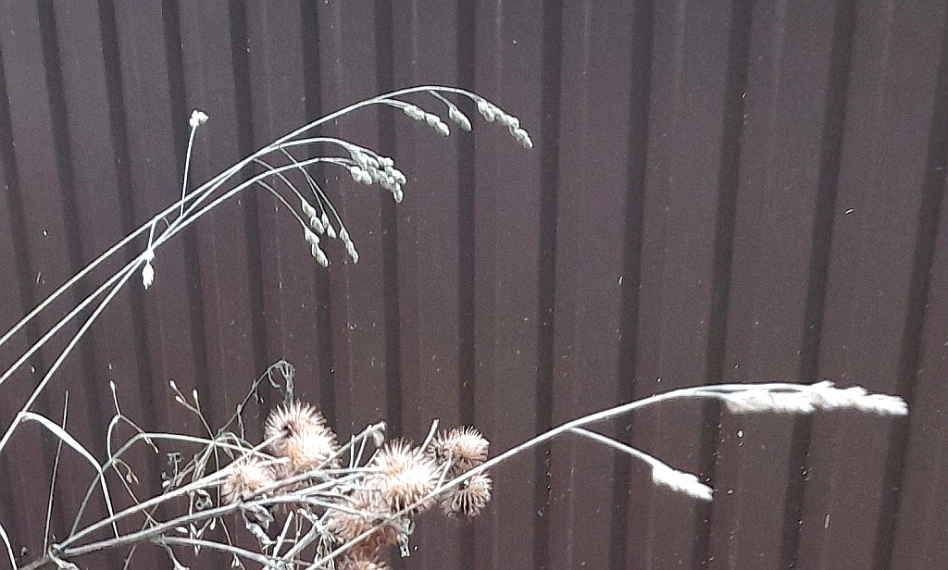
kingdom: Plantae
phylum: Tracheophyta
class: Liliopsida
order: Poales
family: Poaceae
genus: Dactylis
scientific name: Dactylis glomerata
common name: Orchardgrass
